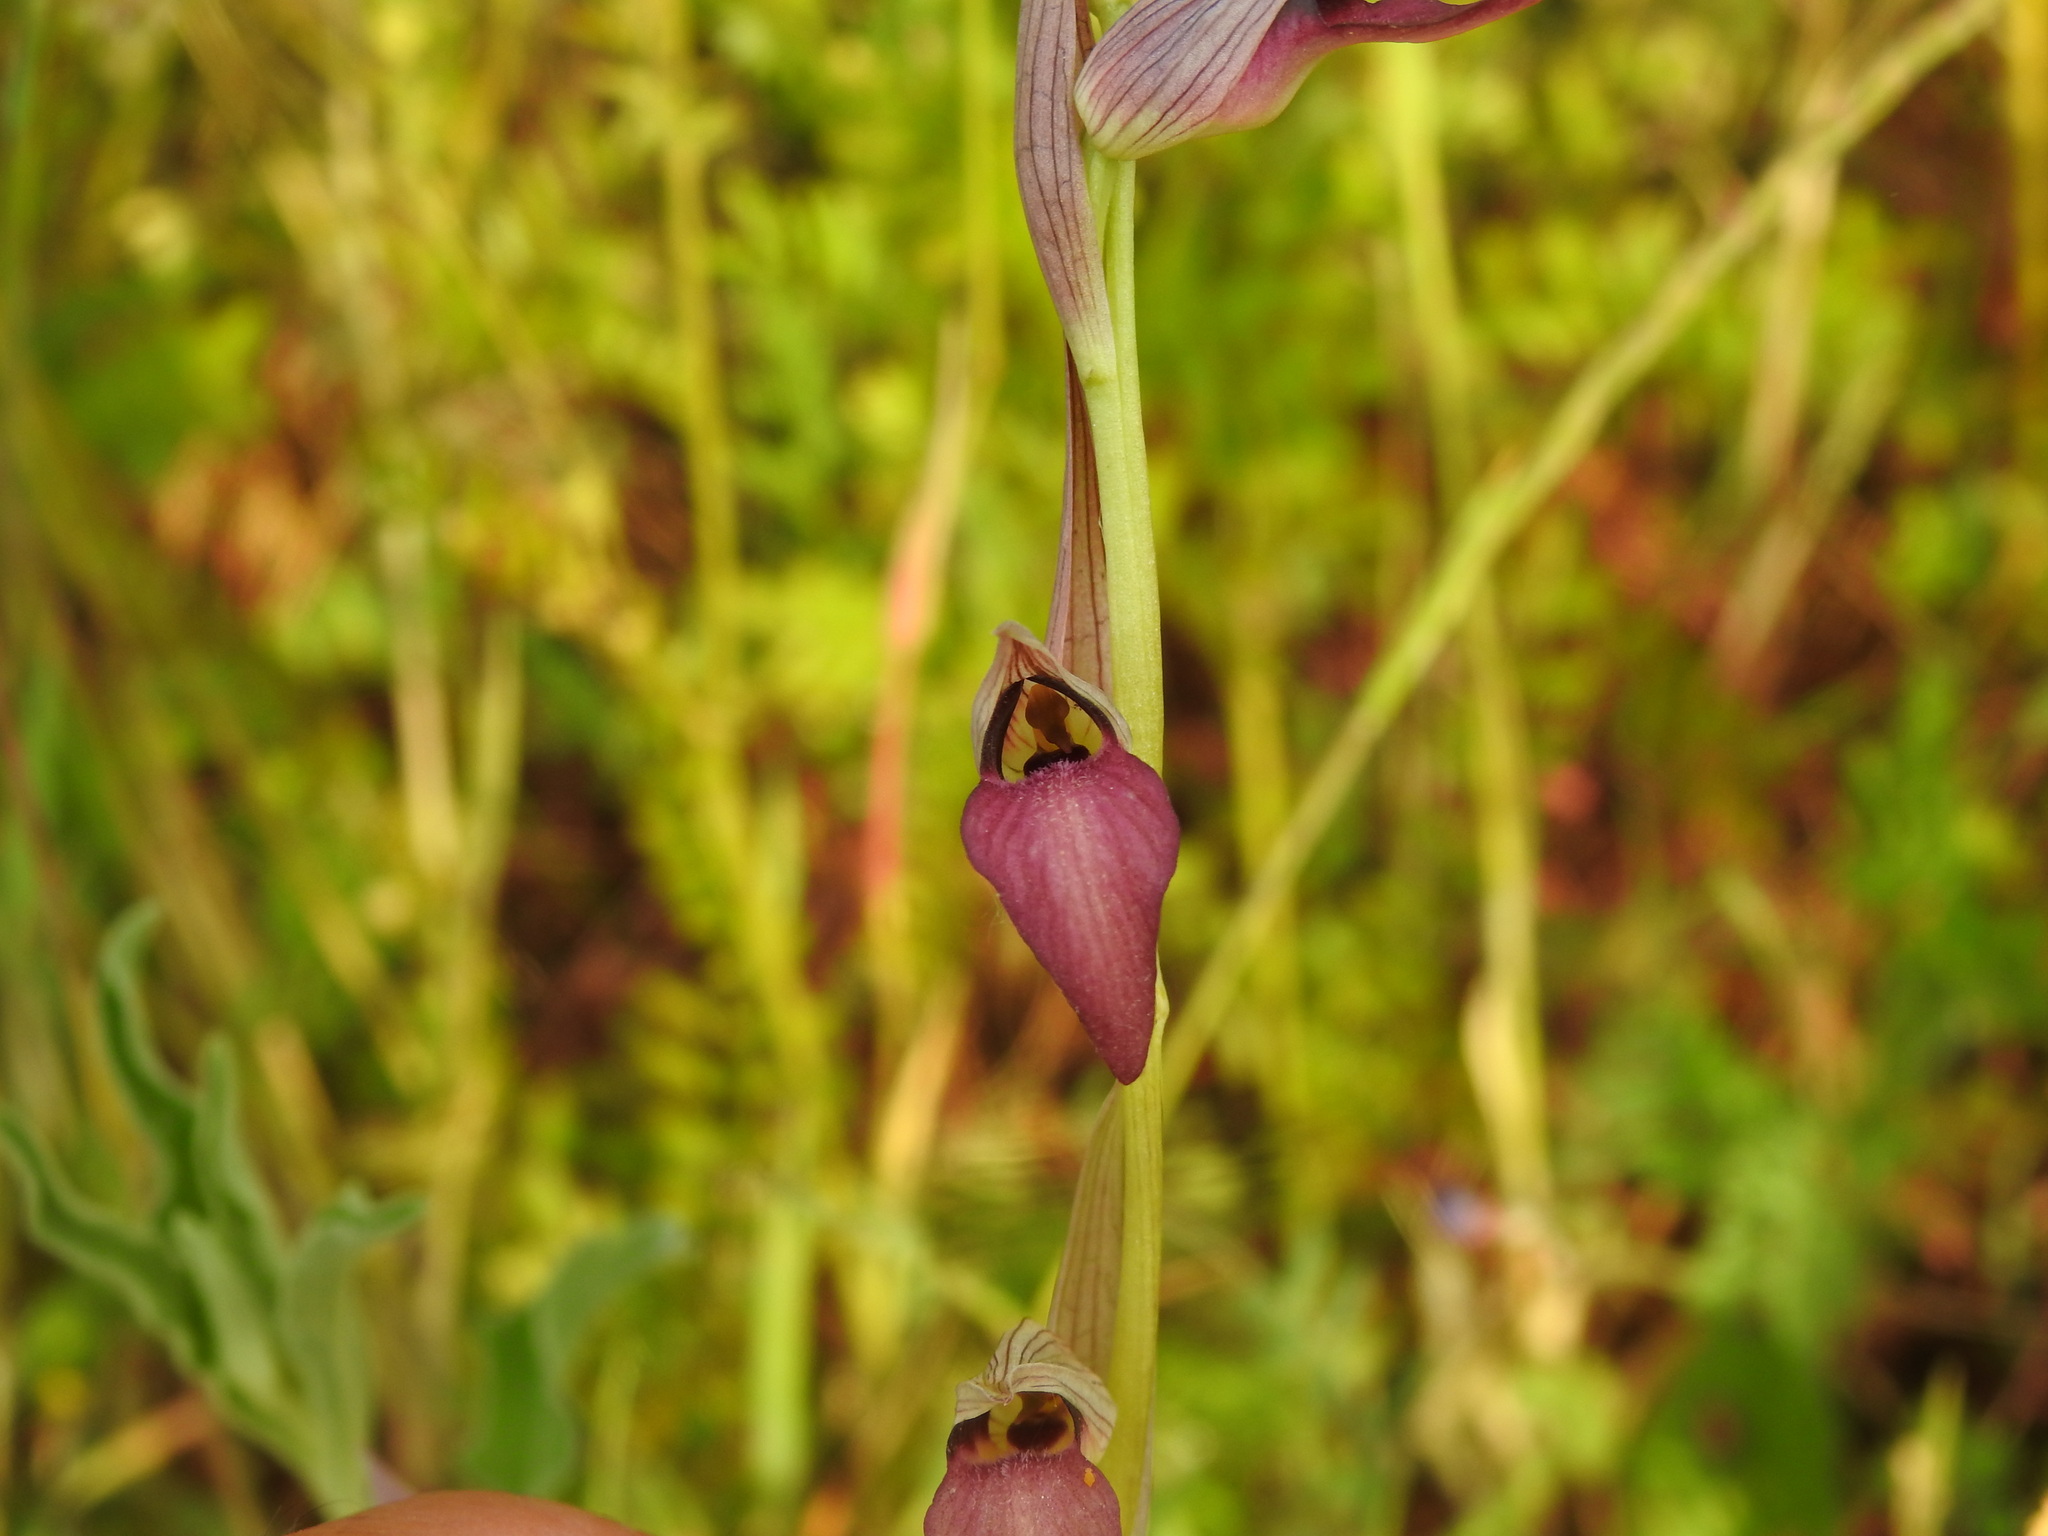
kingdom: Plantae
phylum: Tracheophyta
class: Liliopsida
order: Asparagales
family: Orchidaceae
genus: Serapias
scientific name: Serapias lingua
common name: Tongue-orchid
